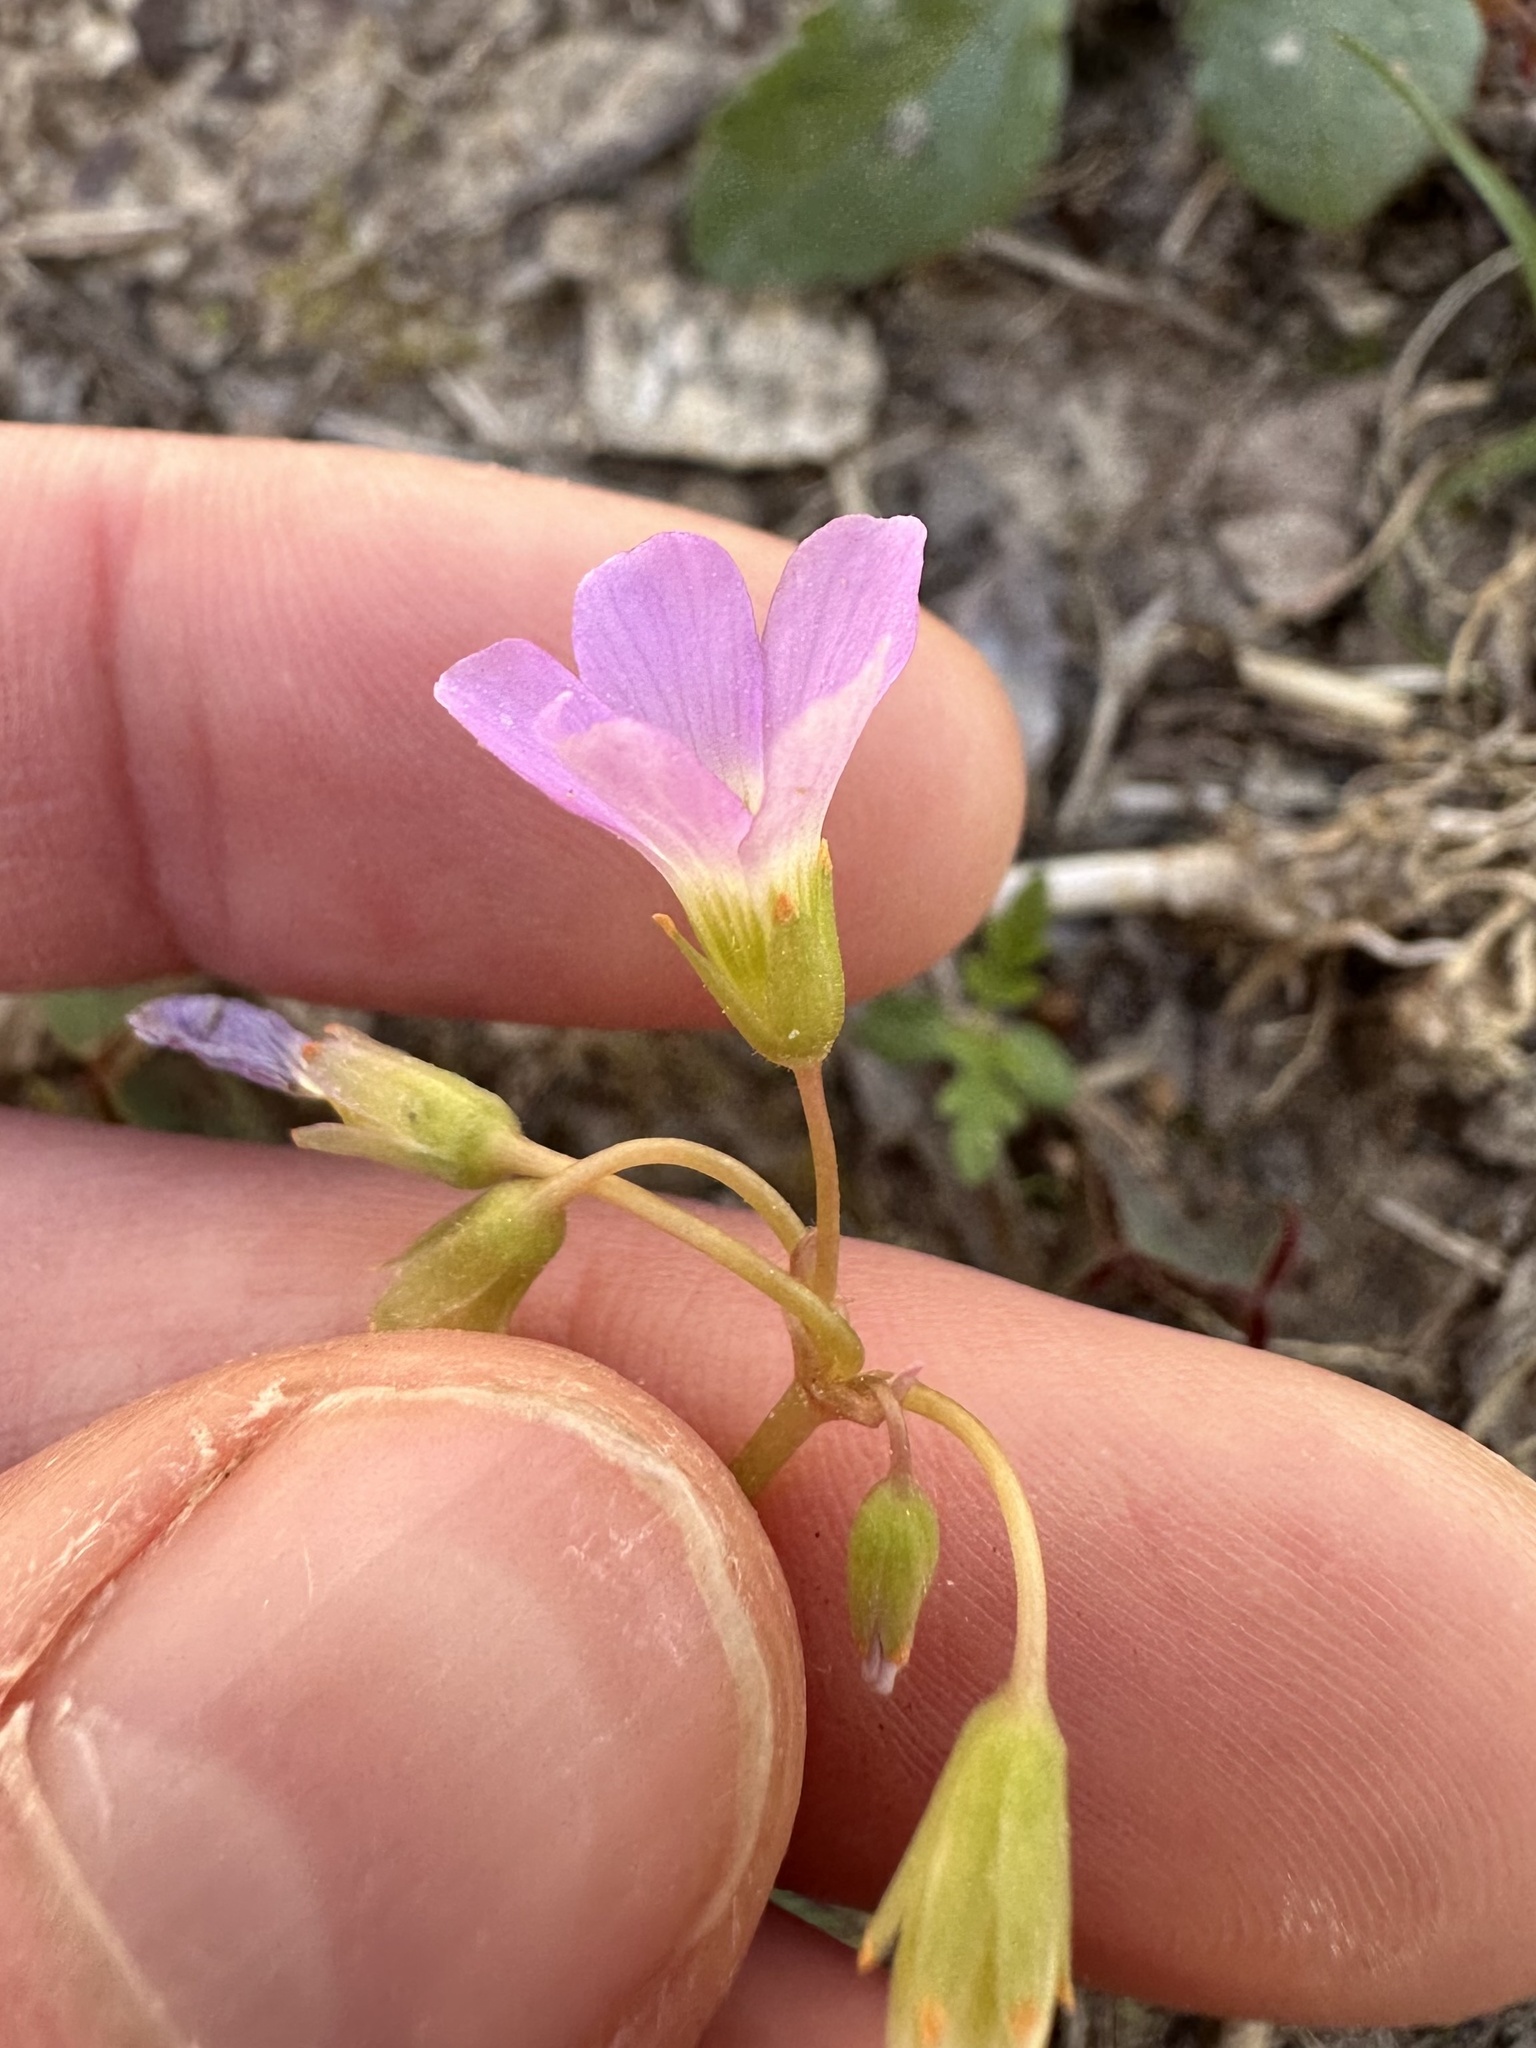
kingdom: Plantae
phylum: Tracheophyta
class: Magnoliopsida
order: Oxalidales
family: Oxalidaceae
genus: Oxalis
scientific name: Oxalis violacea
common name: Violet wood-sorrel
